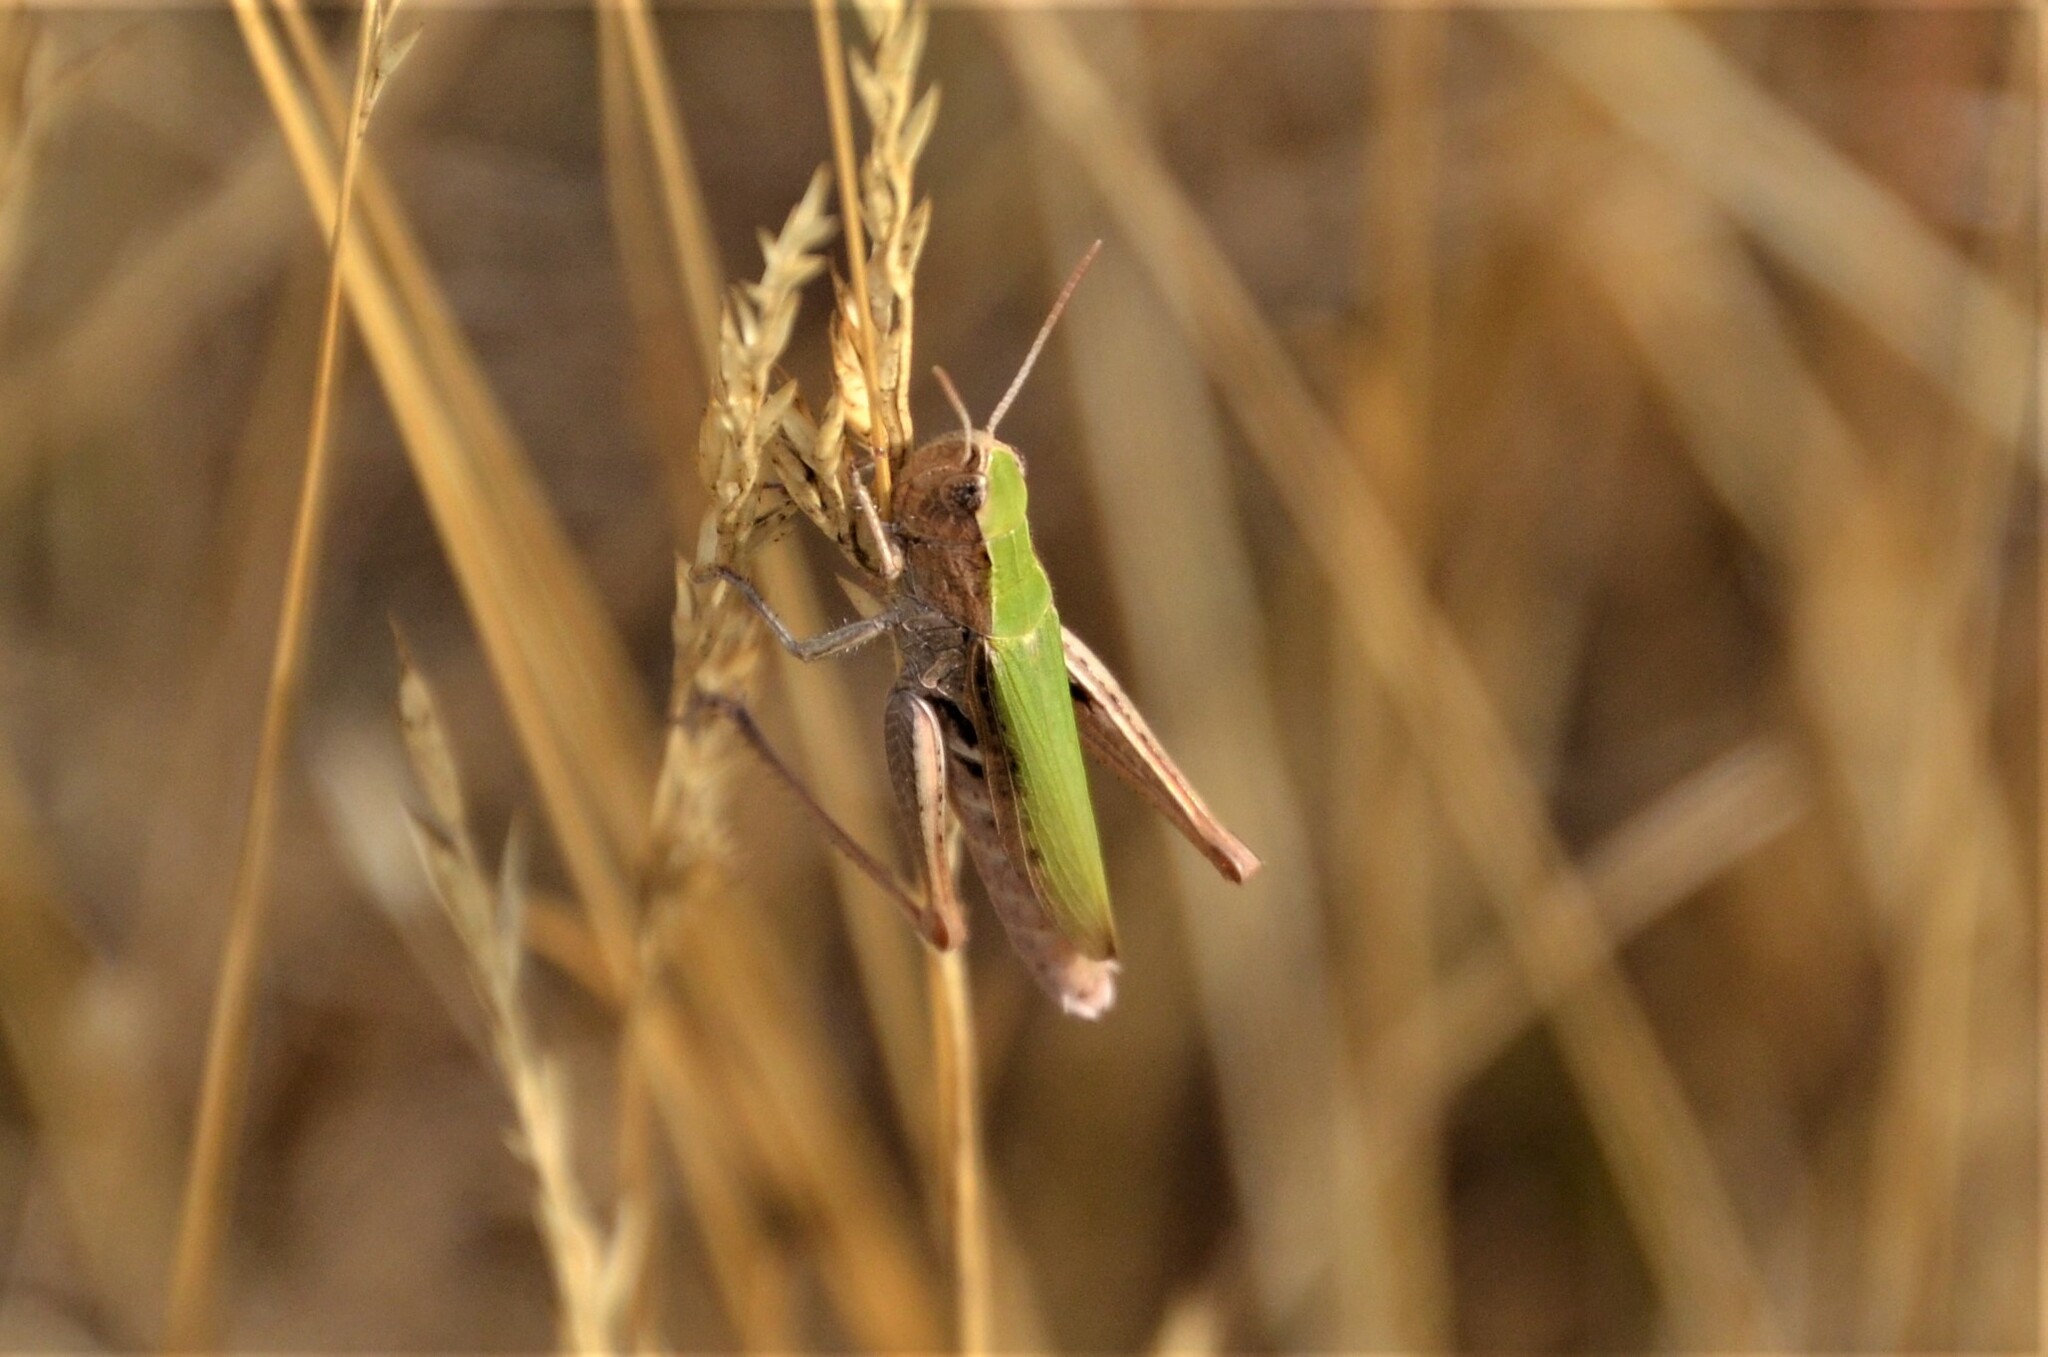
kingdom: Animalia
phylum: Arthropoda
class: Insecta
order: Orthoptera
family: Acrididae
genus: Chorthippus
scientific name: Chorthippus dorsatus
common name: Steppe grasshopper
